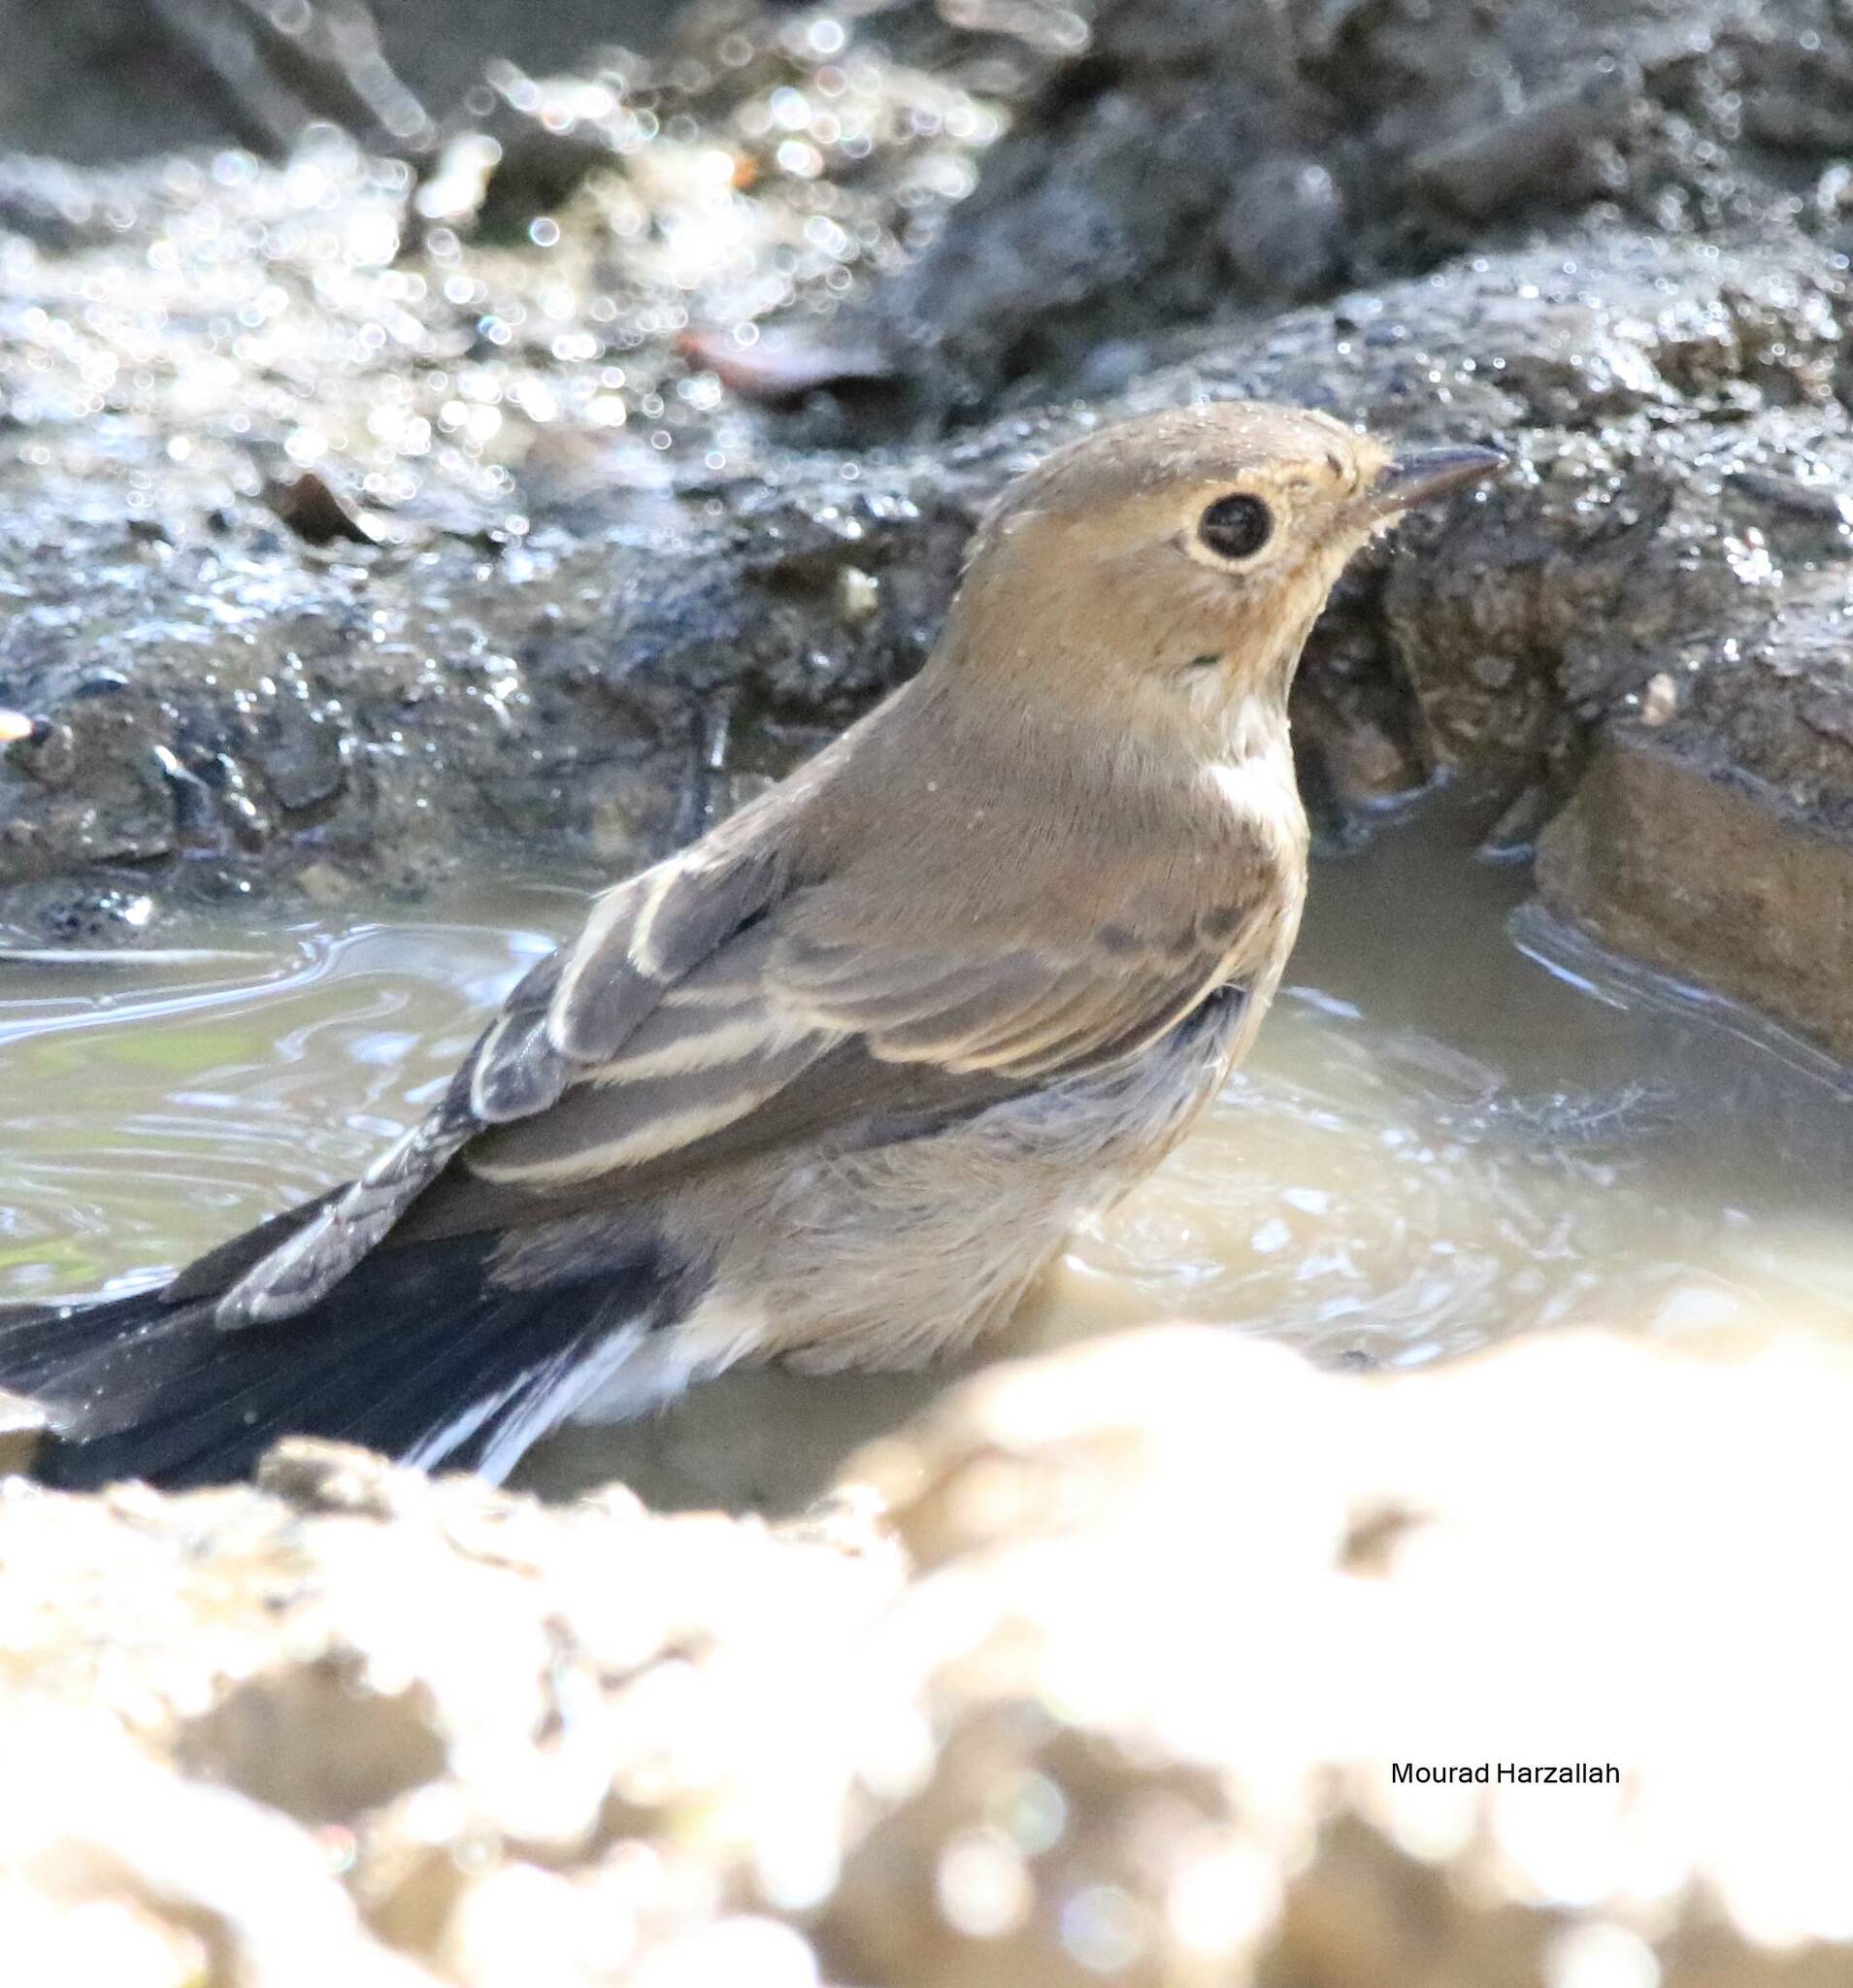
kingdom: Animalia
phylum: Chordata
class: Aves
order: Passeriformes
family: Muscicapidae
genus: Ficedula
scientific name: Ficedula speculigera
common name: Atlas pied flycatcher
